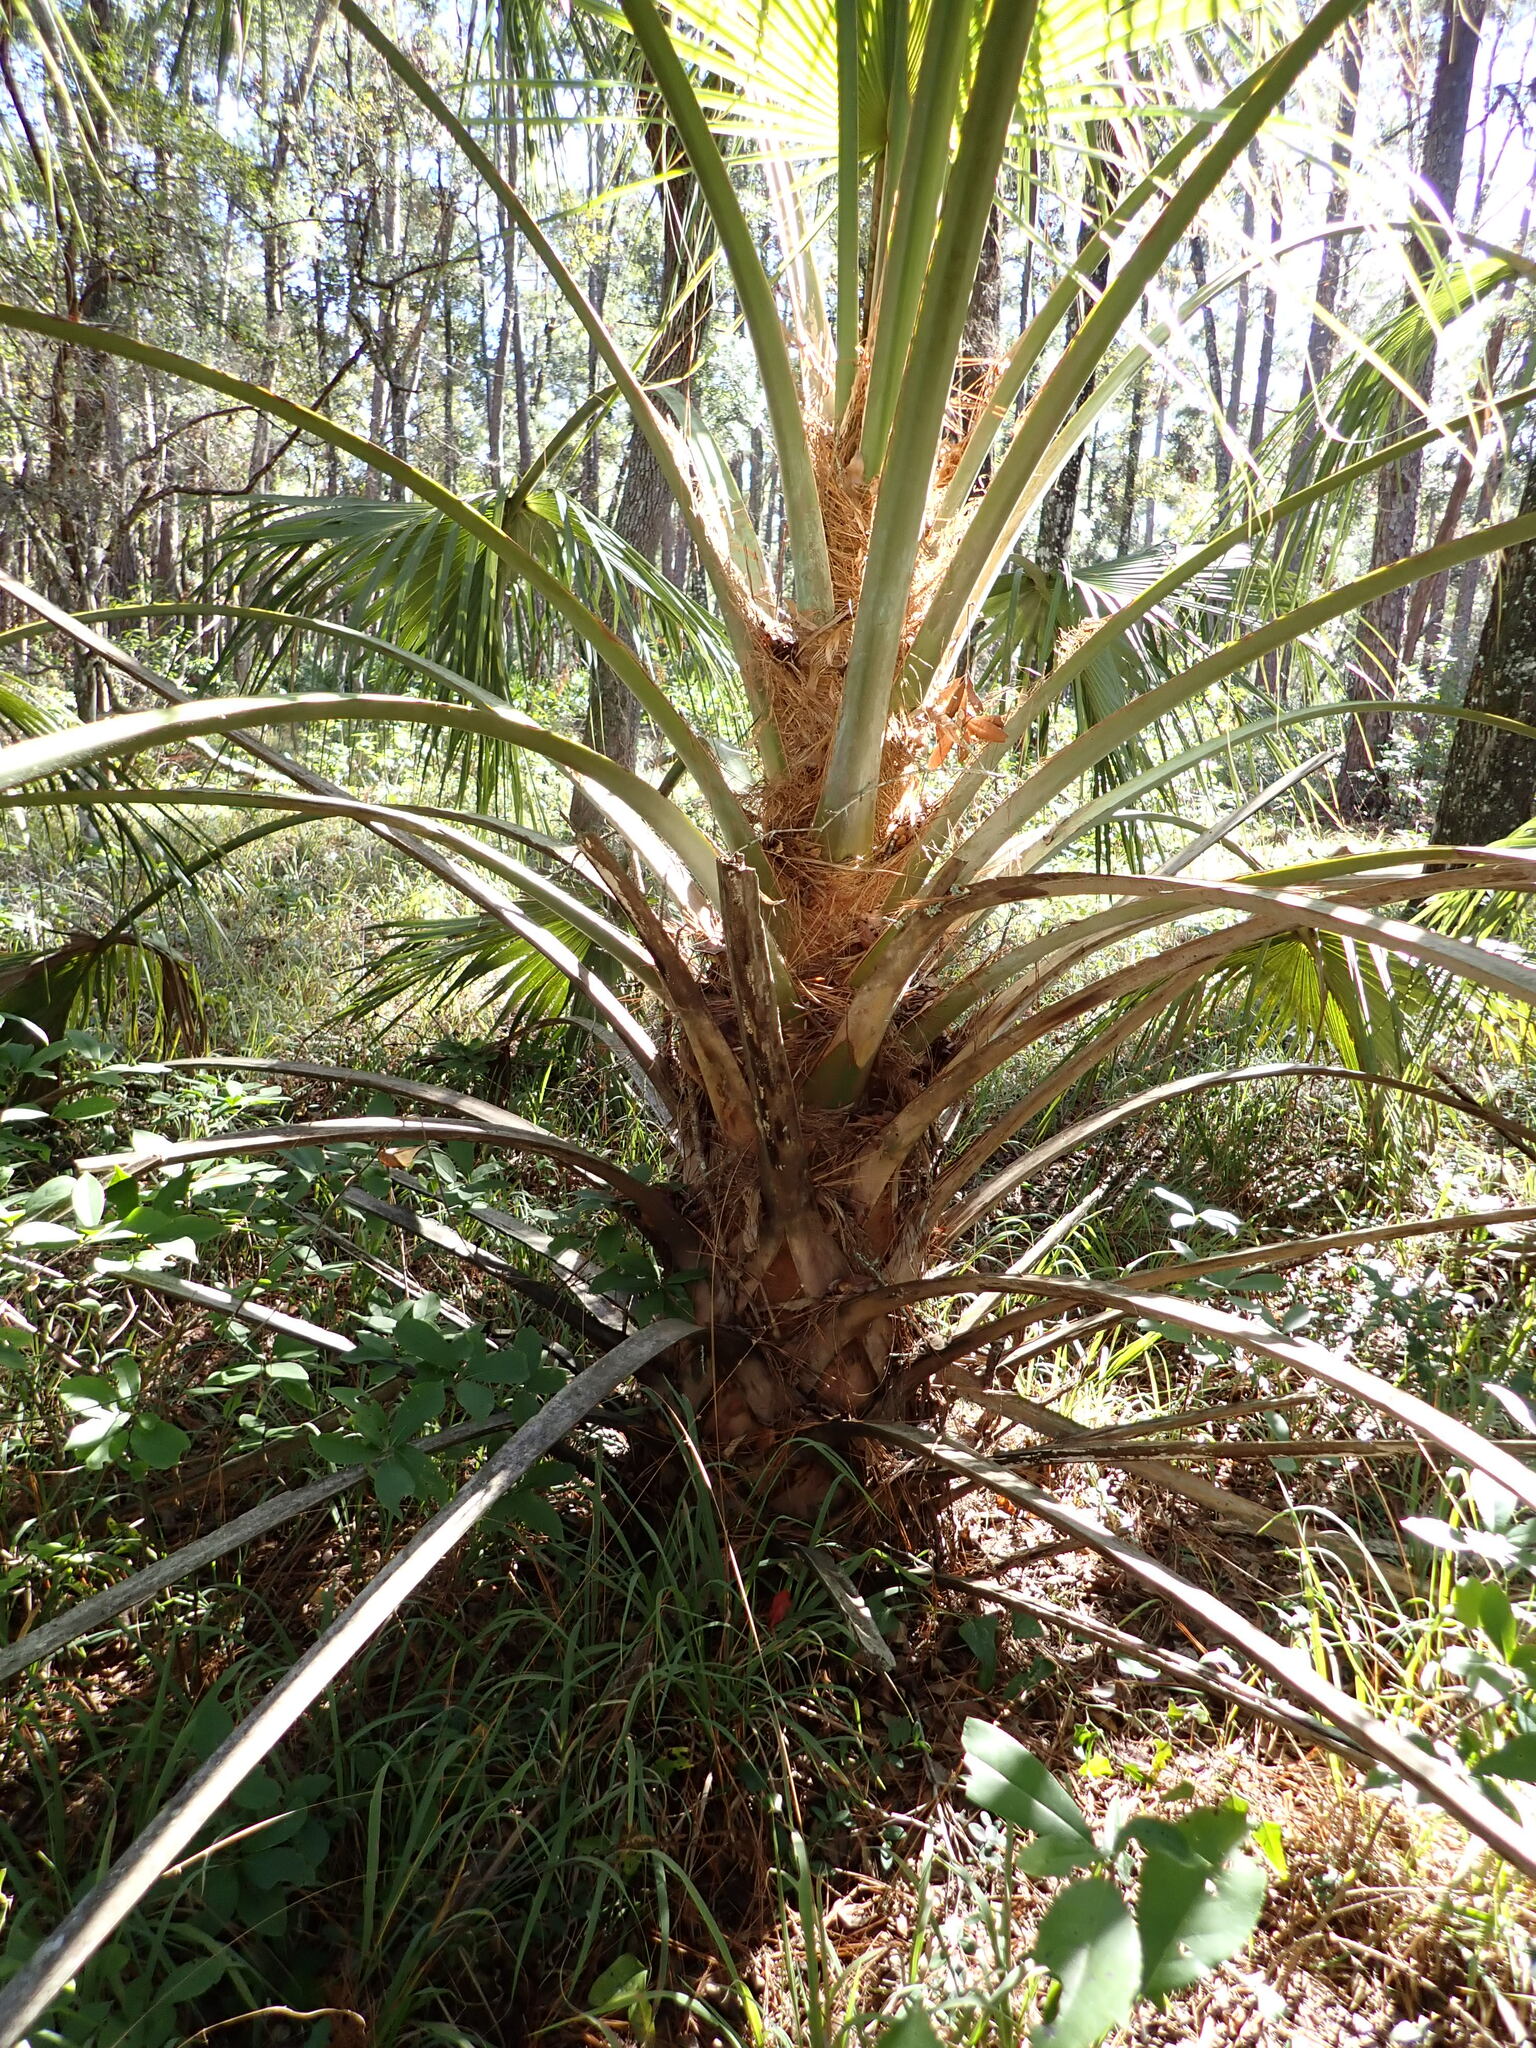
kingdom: Plantae
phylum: Tracheophyta
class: Liliopsida
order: Arecales
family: Arecaceae
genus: Sabal
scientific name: Sabal palmetto
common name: Blue palmetto
